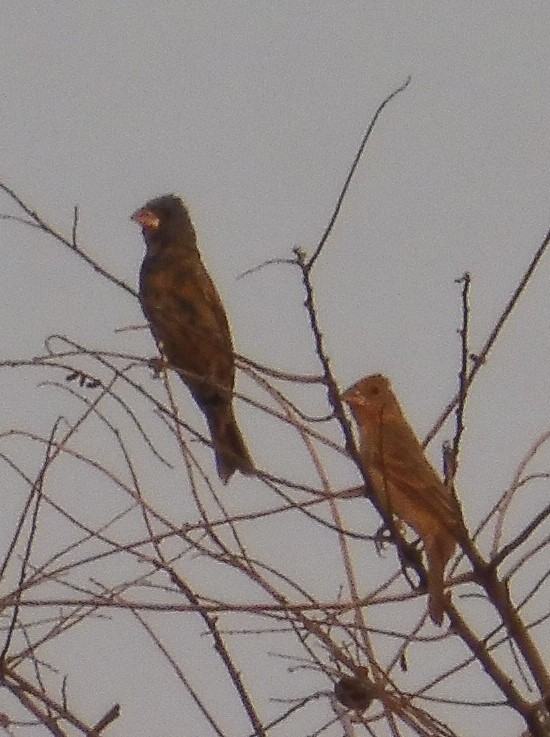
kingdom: Animalia
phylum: Chordata
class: Aves
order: Passeriformes
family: Cardinalidae
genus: Passerina
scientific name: Passerina caerulea
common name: Blue grosbeak
